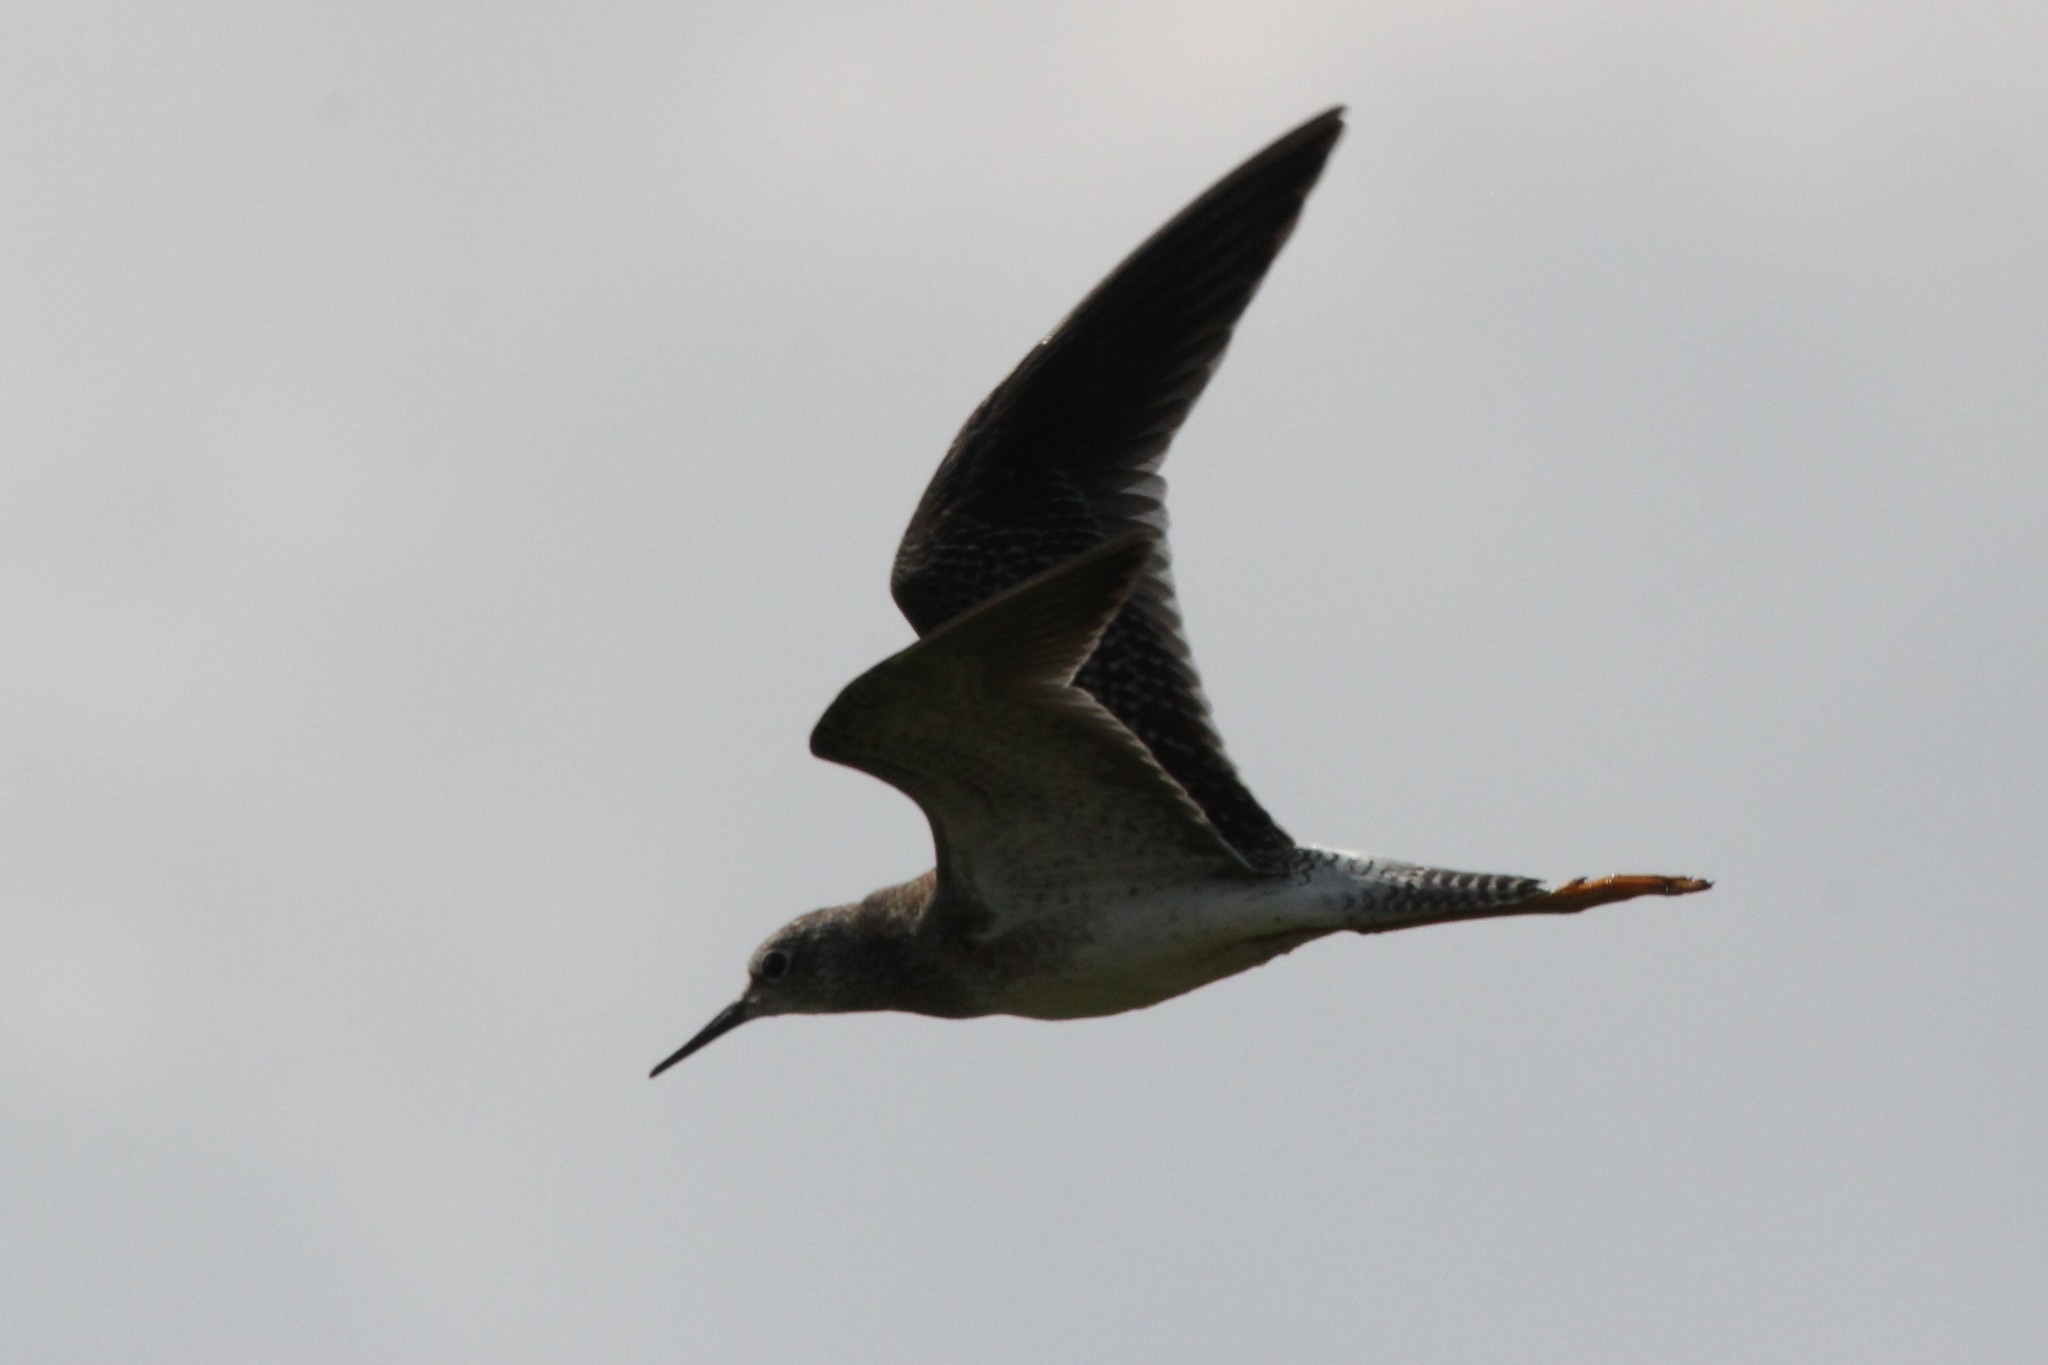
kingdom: Animalia
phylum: Chordata
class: Aves
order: Charadriiformes
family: Scolopacidae
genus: Tringa
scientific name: Tringa flavipes
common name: Lesser yellowlegs
